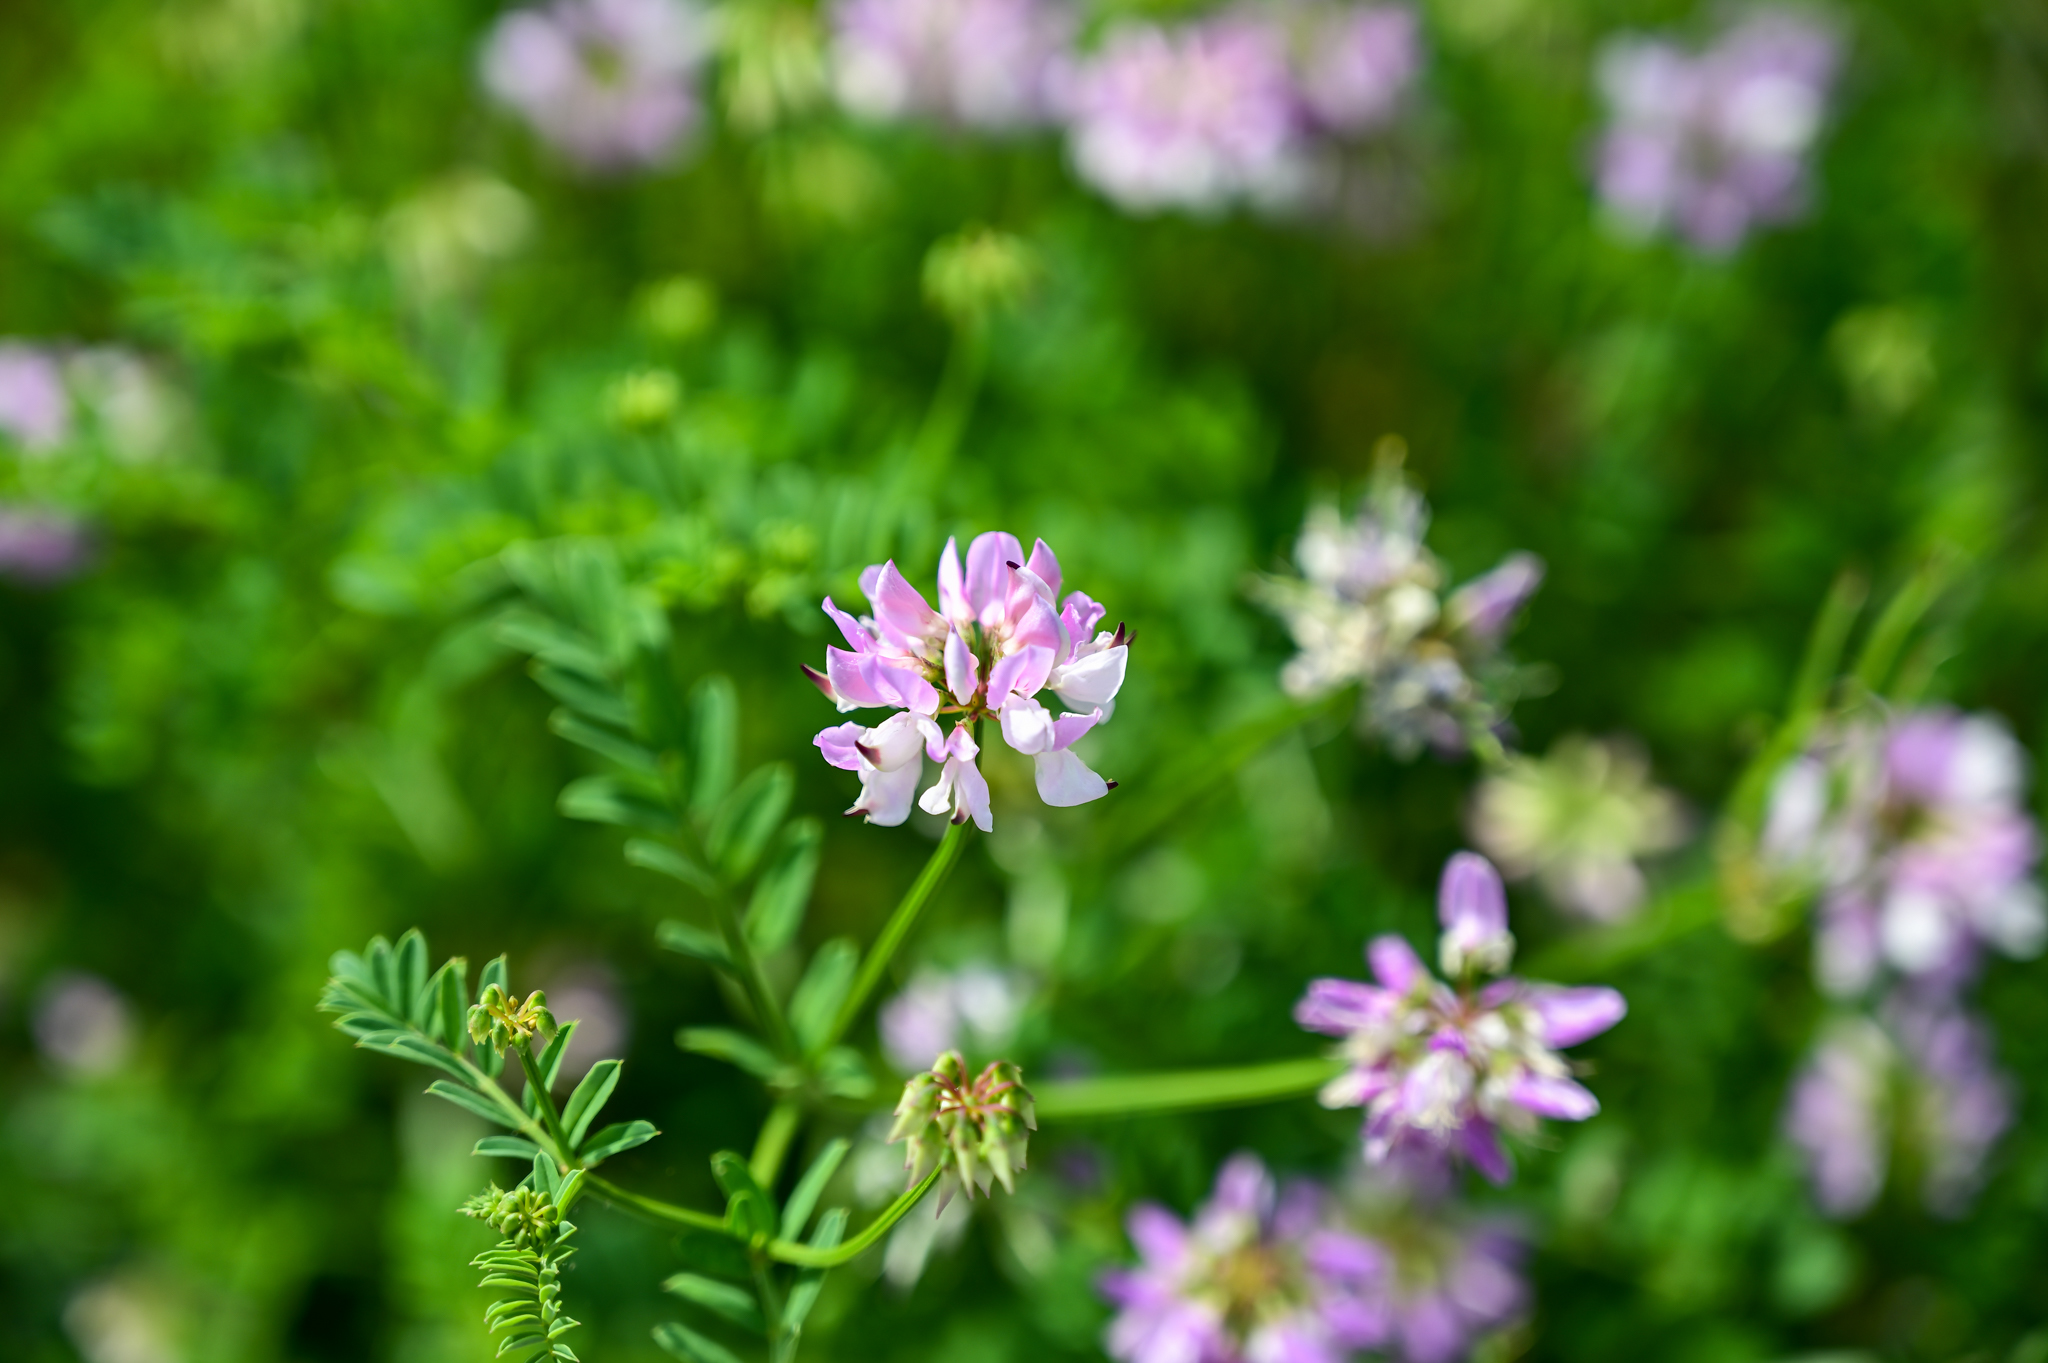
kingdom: Plantae
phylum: Tracheophyta
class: Magnoliopsida
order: Fabales
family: Fabaceae
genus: Coronilla
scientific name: Coronilla varia
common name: Crownvetch
